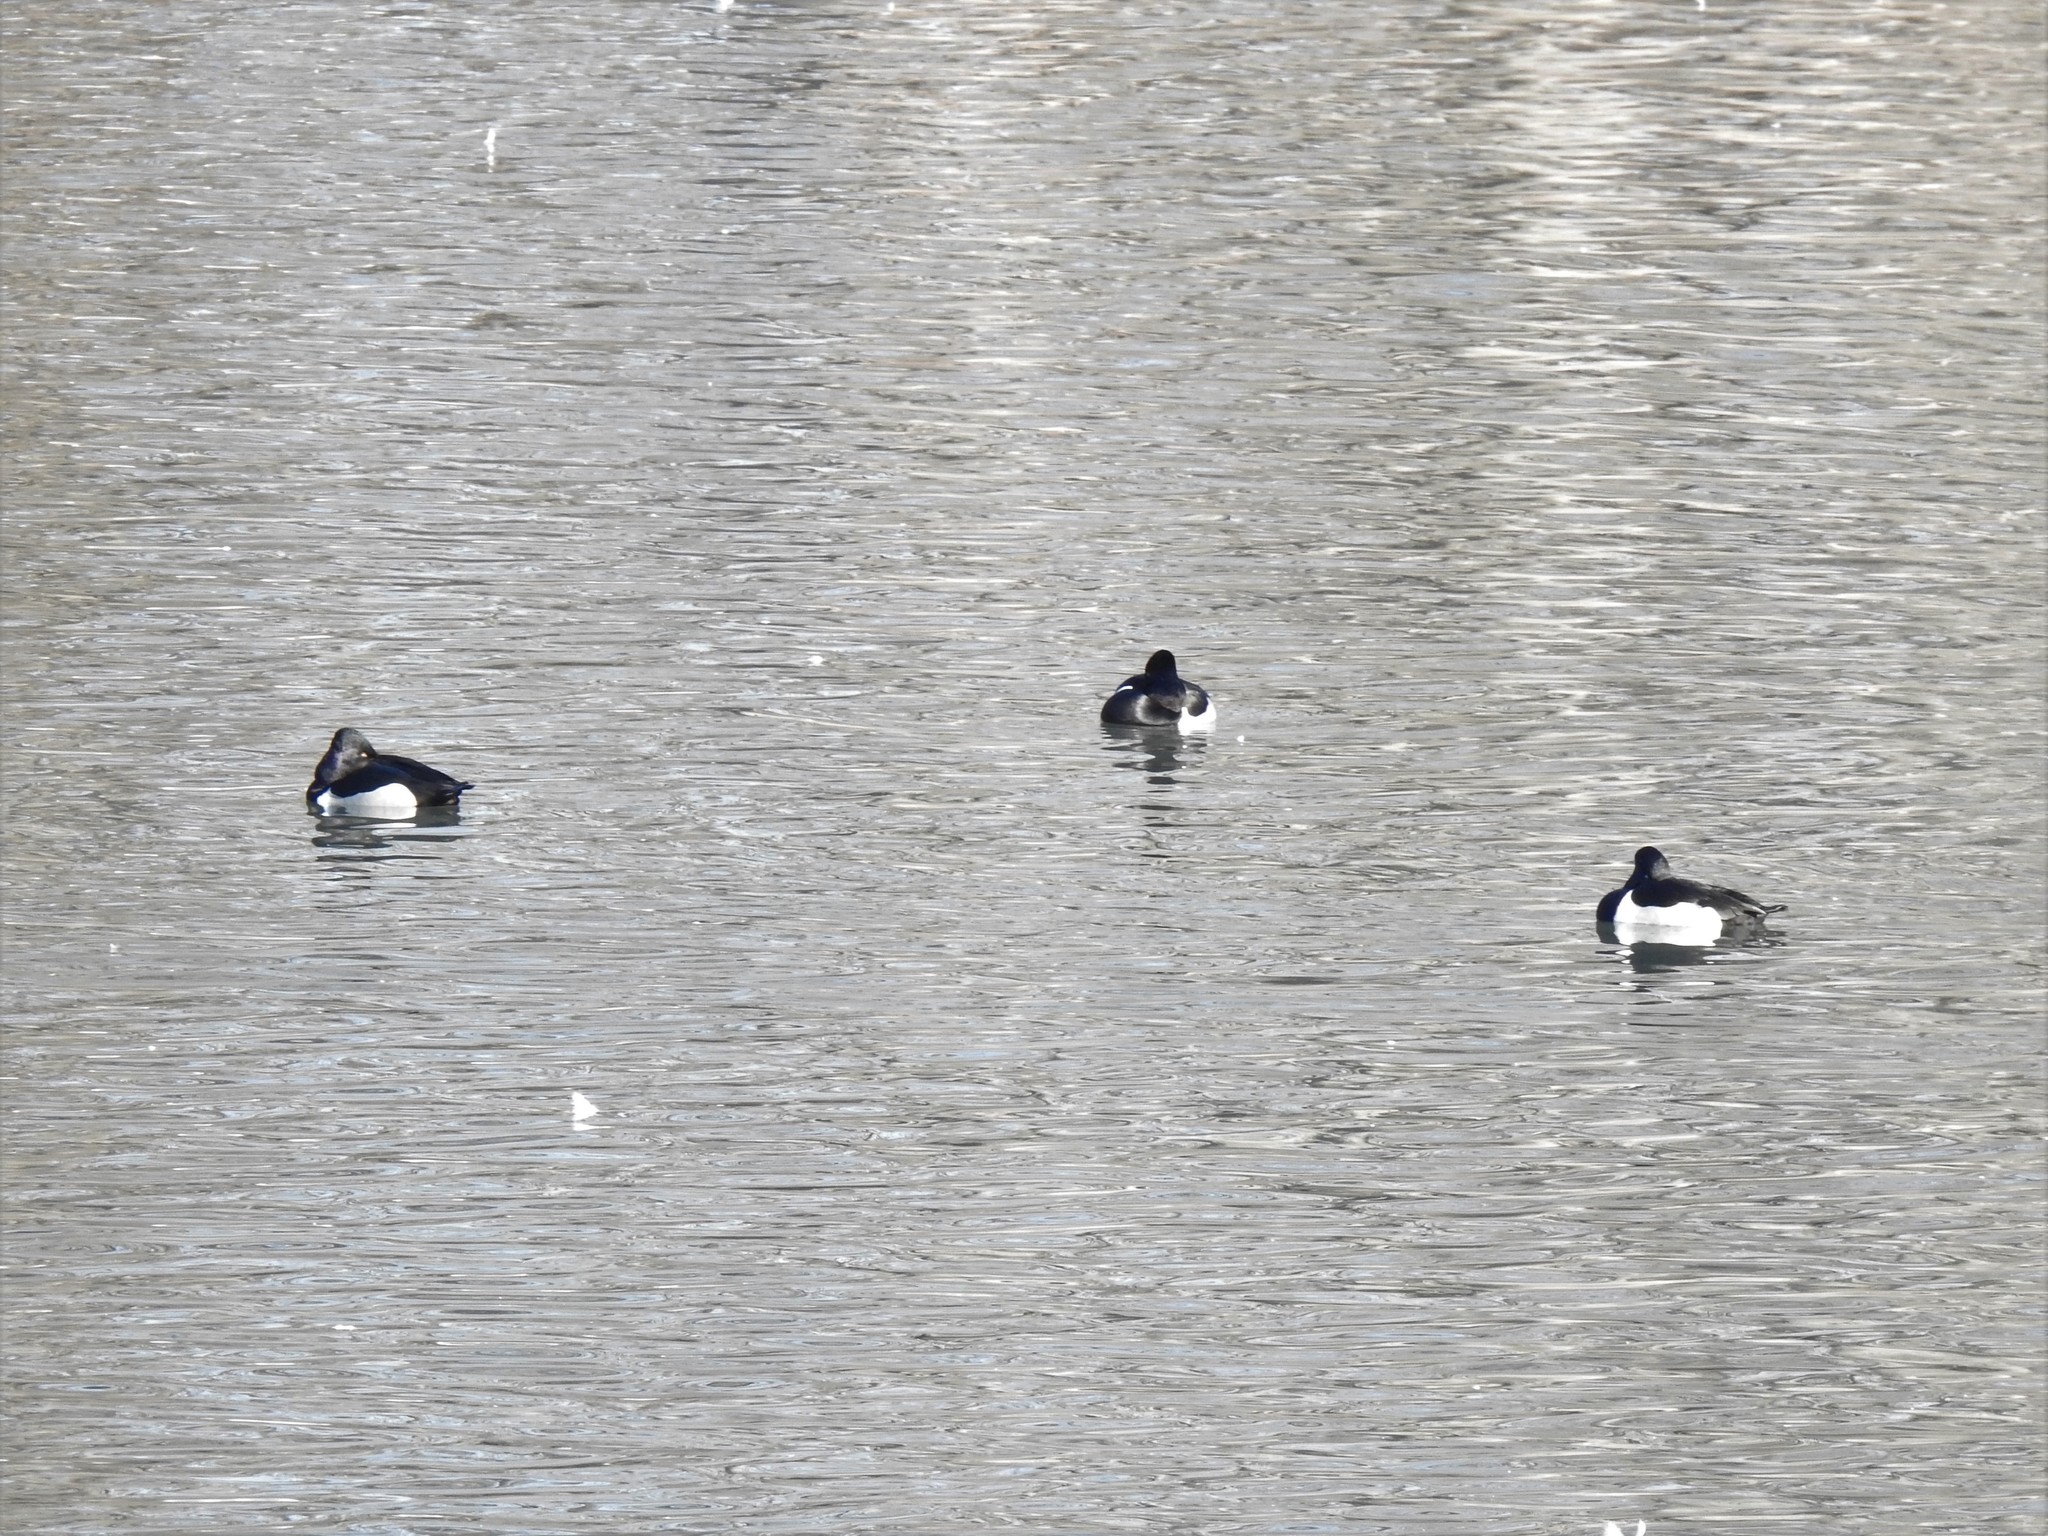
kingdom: Animalia
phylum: Chordata
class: Aves
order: Anseriformes
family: Anatidae
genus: Aythya
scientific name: Aythya collaris
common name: Ring-necked duck
